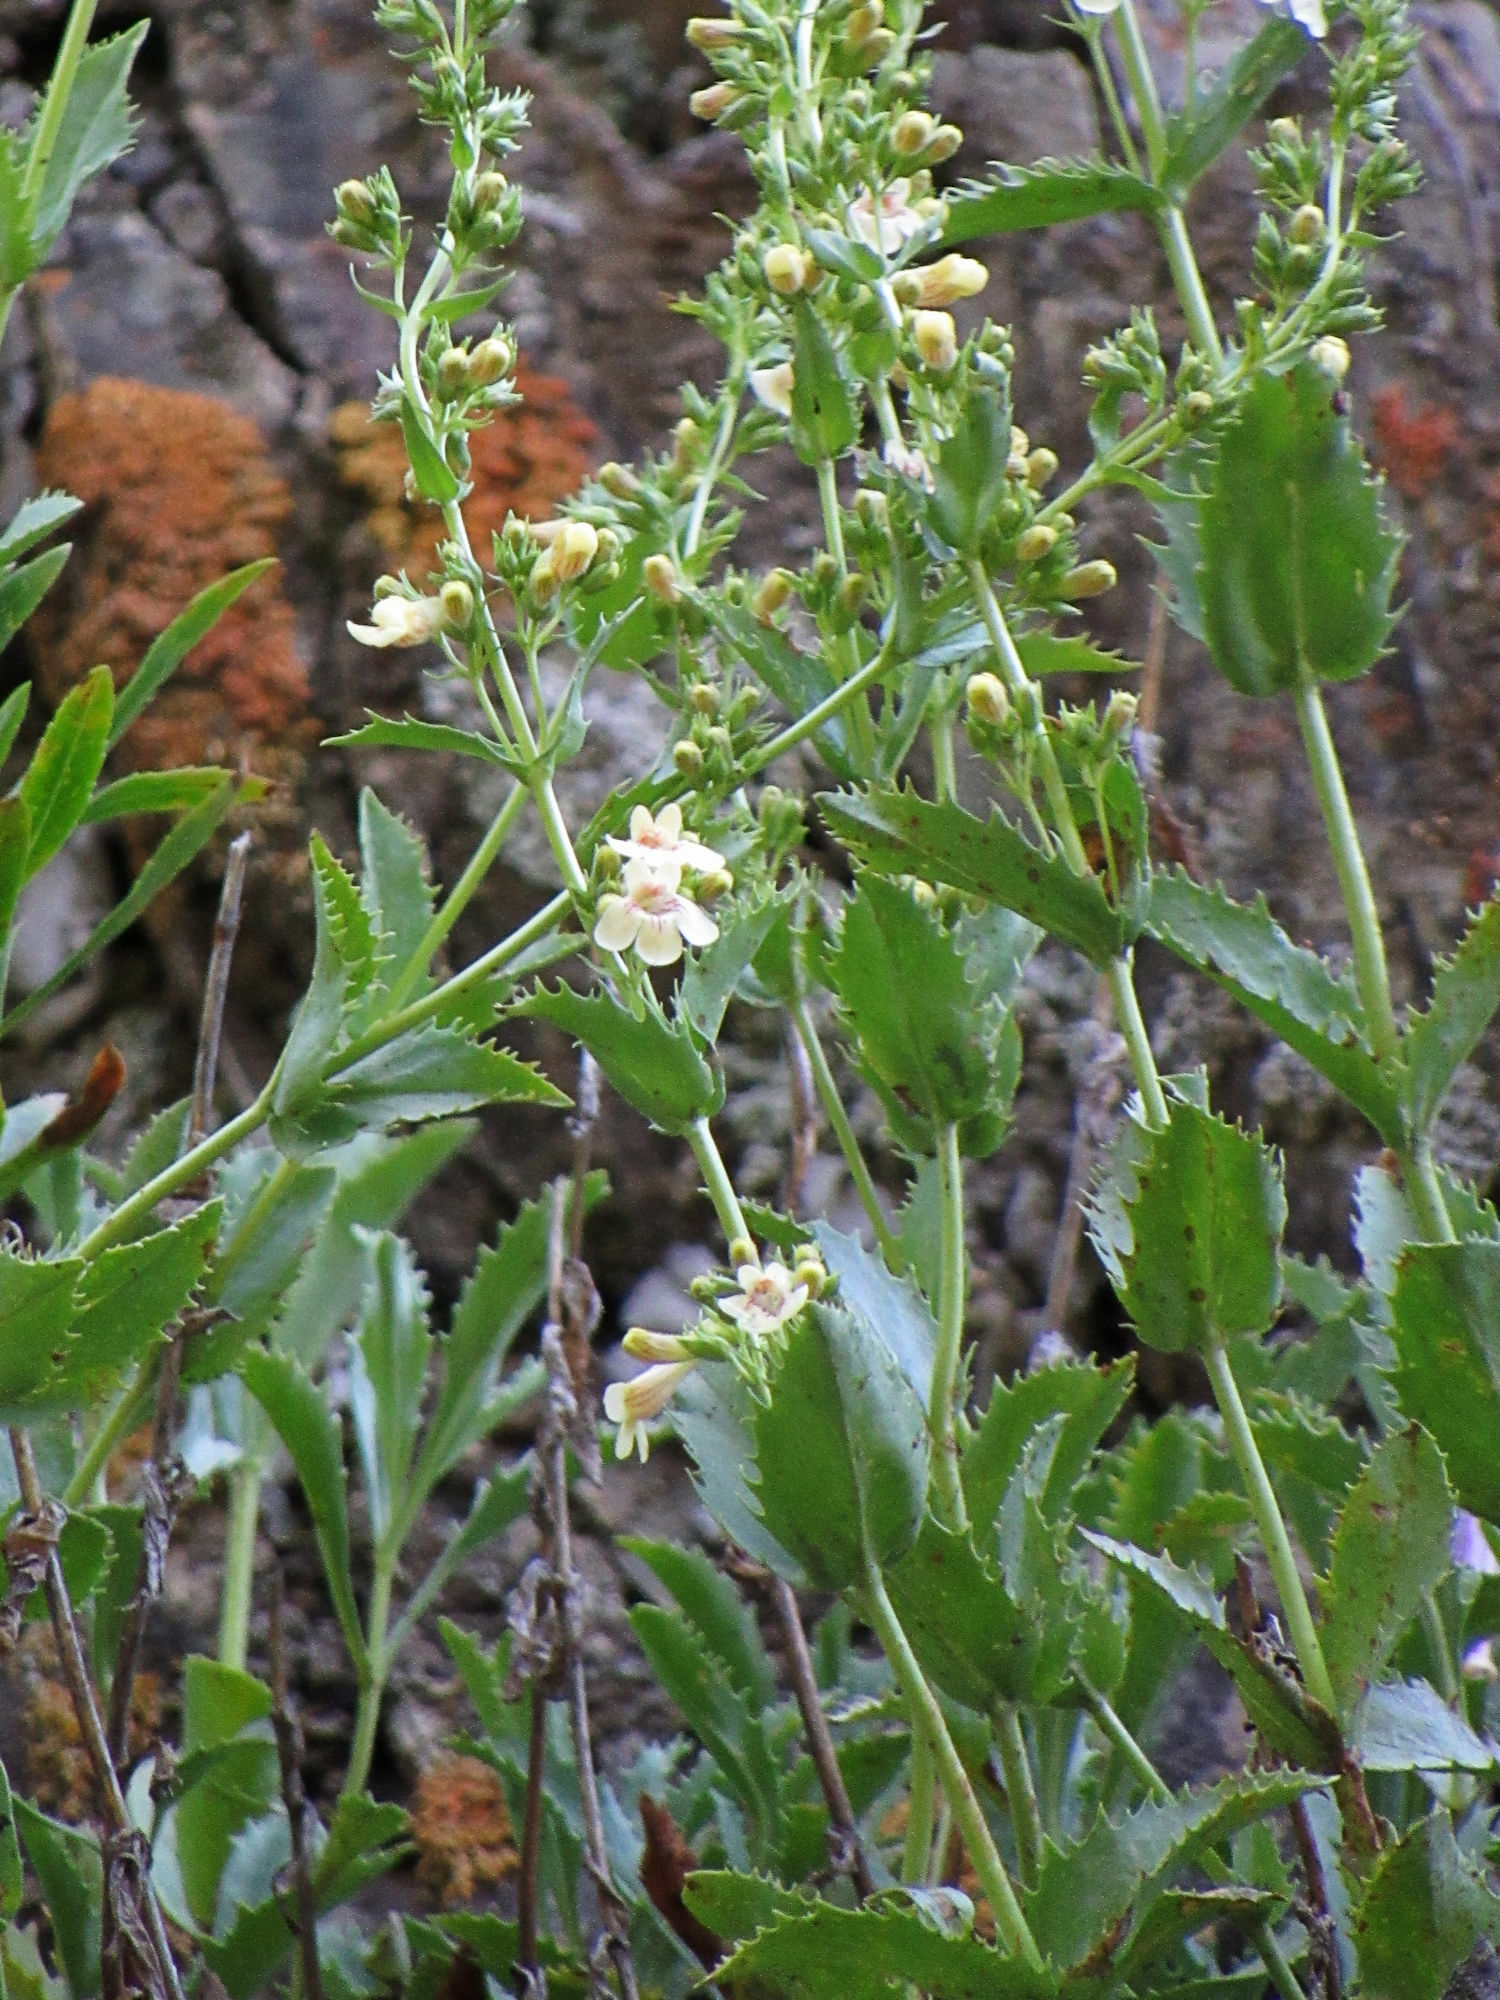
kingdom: Plantae
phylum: Tracheophyta
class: Magnoliopsida
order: Lamiales
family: Plantaginaceae
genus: Penstemon
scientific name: Penstemon deustus
